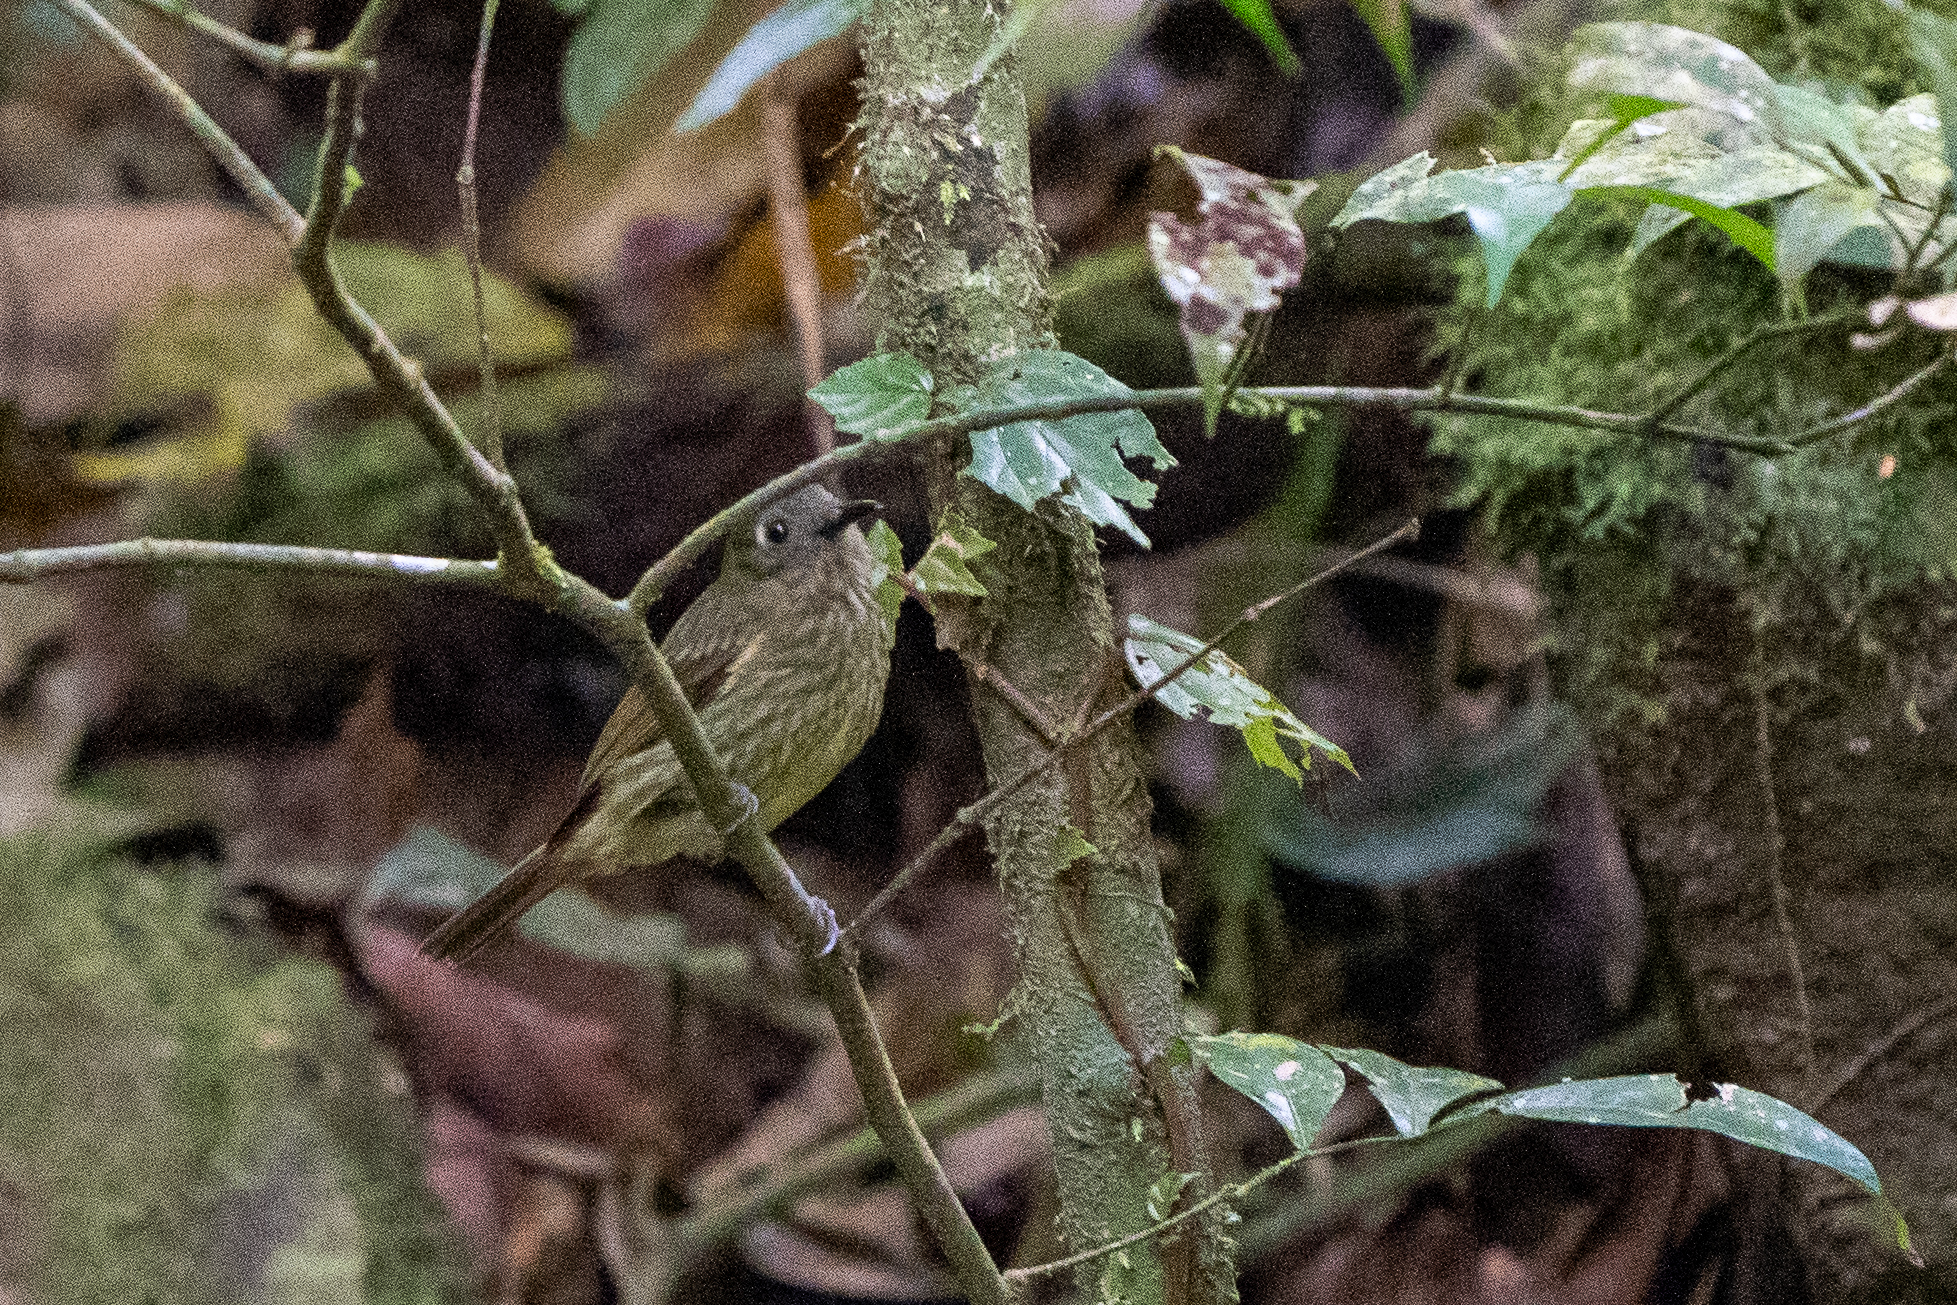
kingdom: Animalia
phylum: Chordata
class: Aves
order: Passeriformes
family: Tyrannidae
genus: Mionectes
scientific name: Mionectes galbinus
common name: Olive-striped flycatcher
